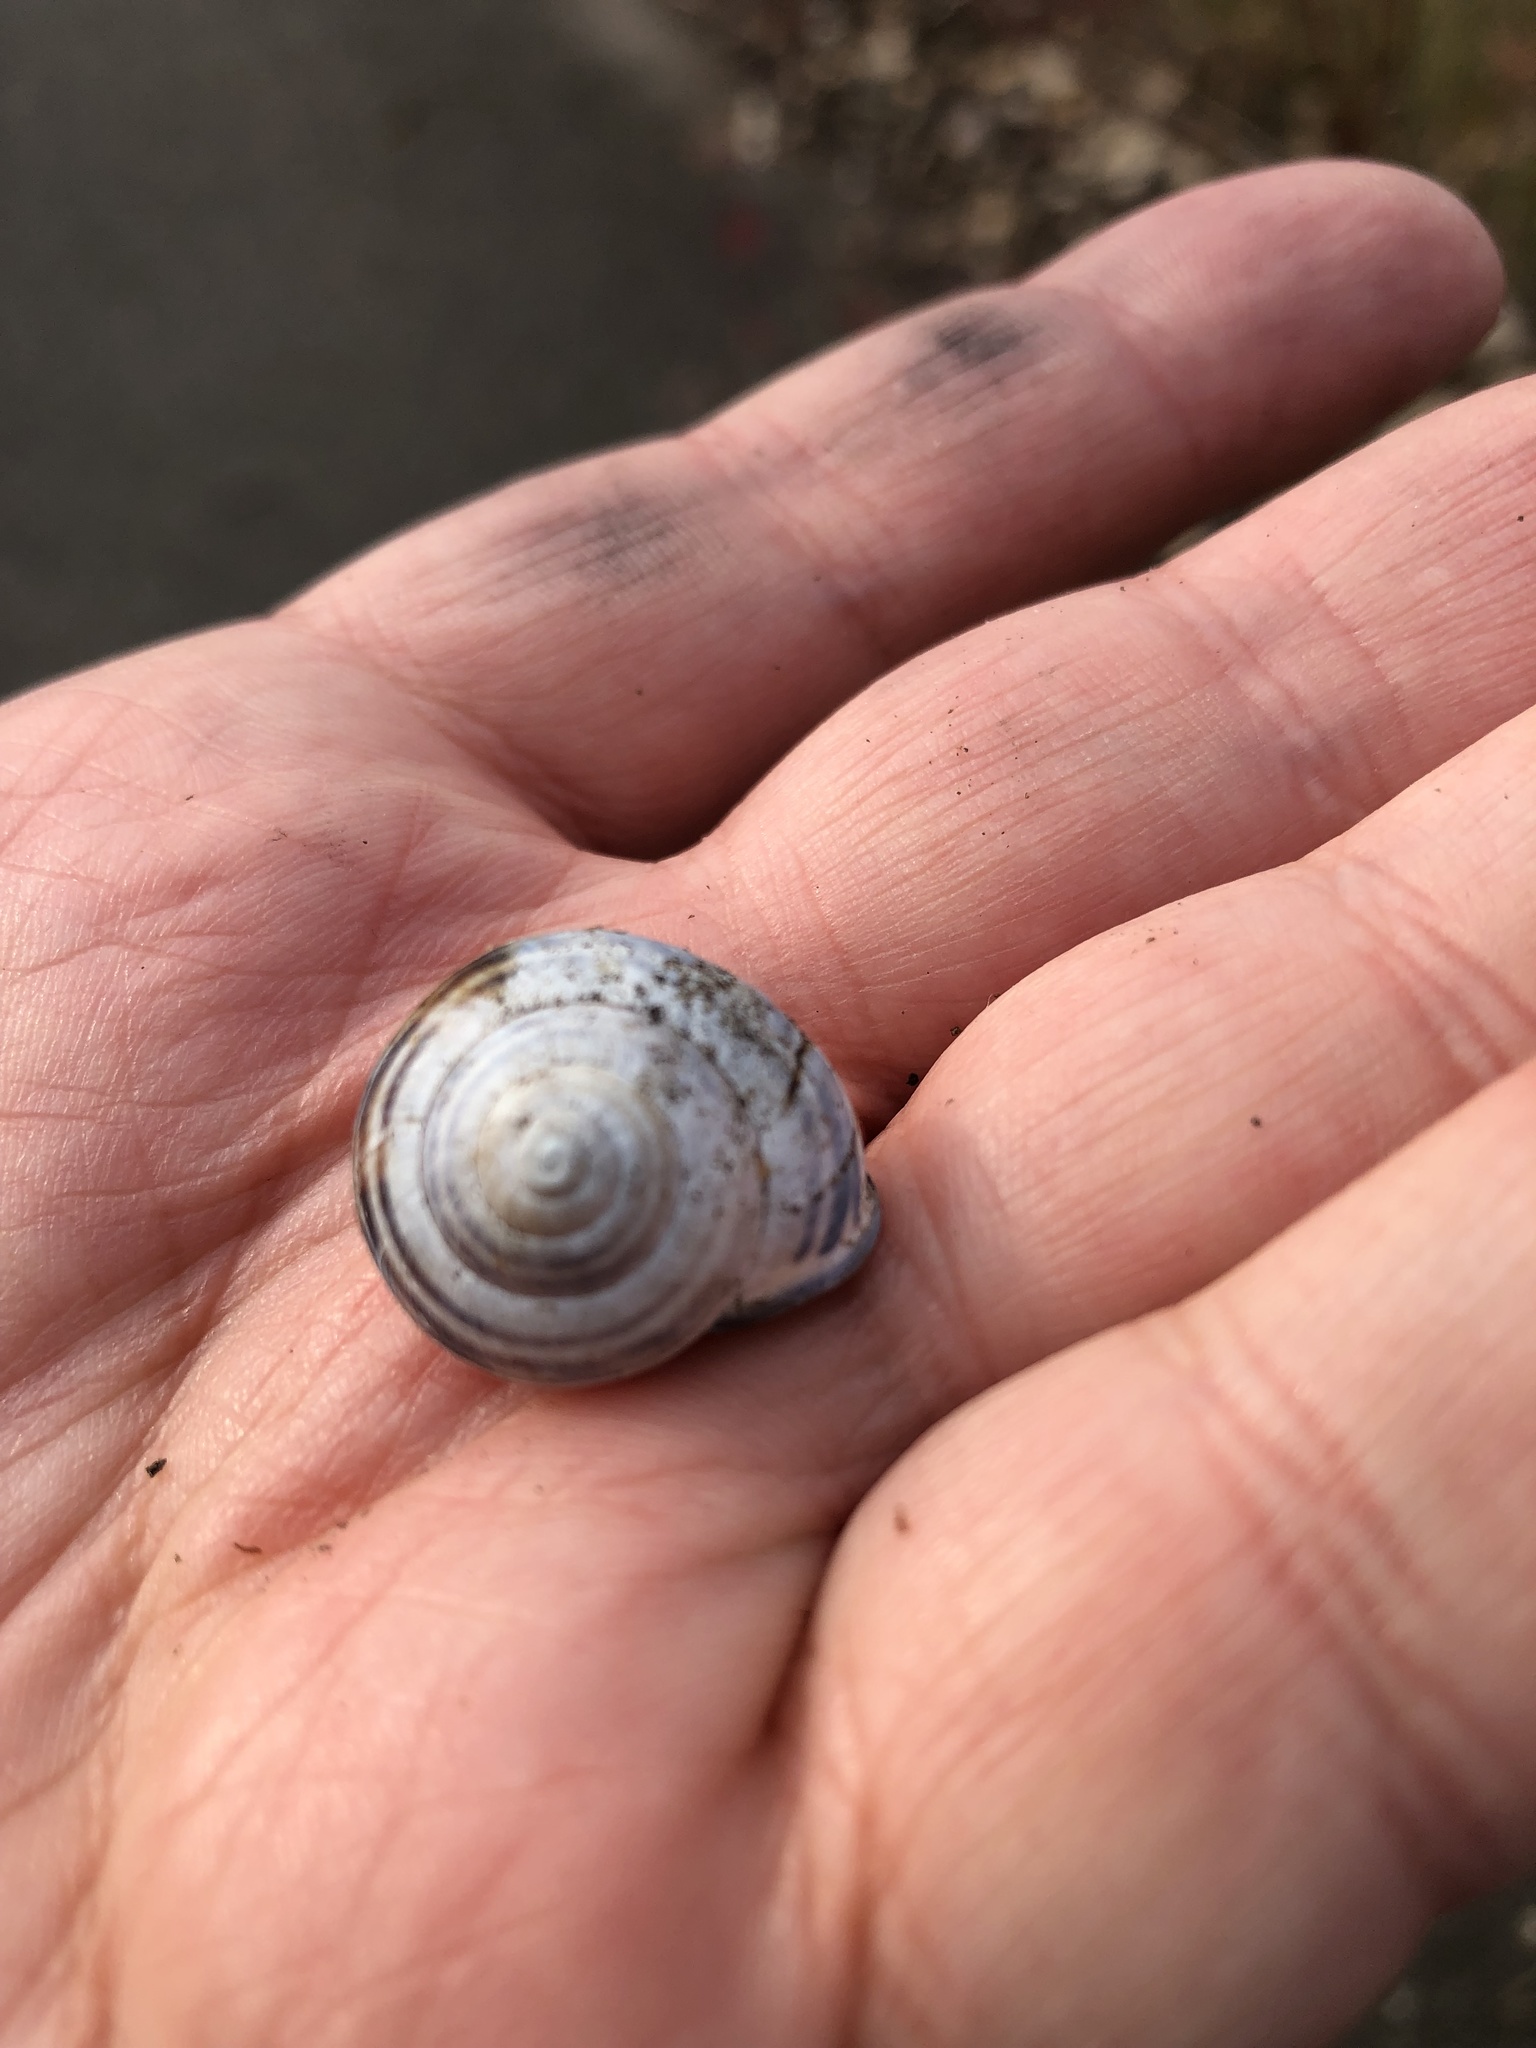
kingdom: Animalia
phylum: Mollusca
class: Gastropoda
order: Stylommatophora
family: Helicidae
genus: Cepaea
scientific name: Cepaea nemoralis
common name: Grovesnail
